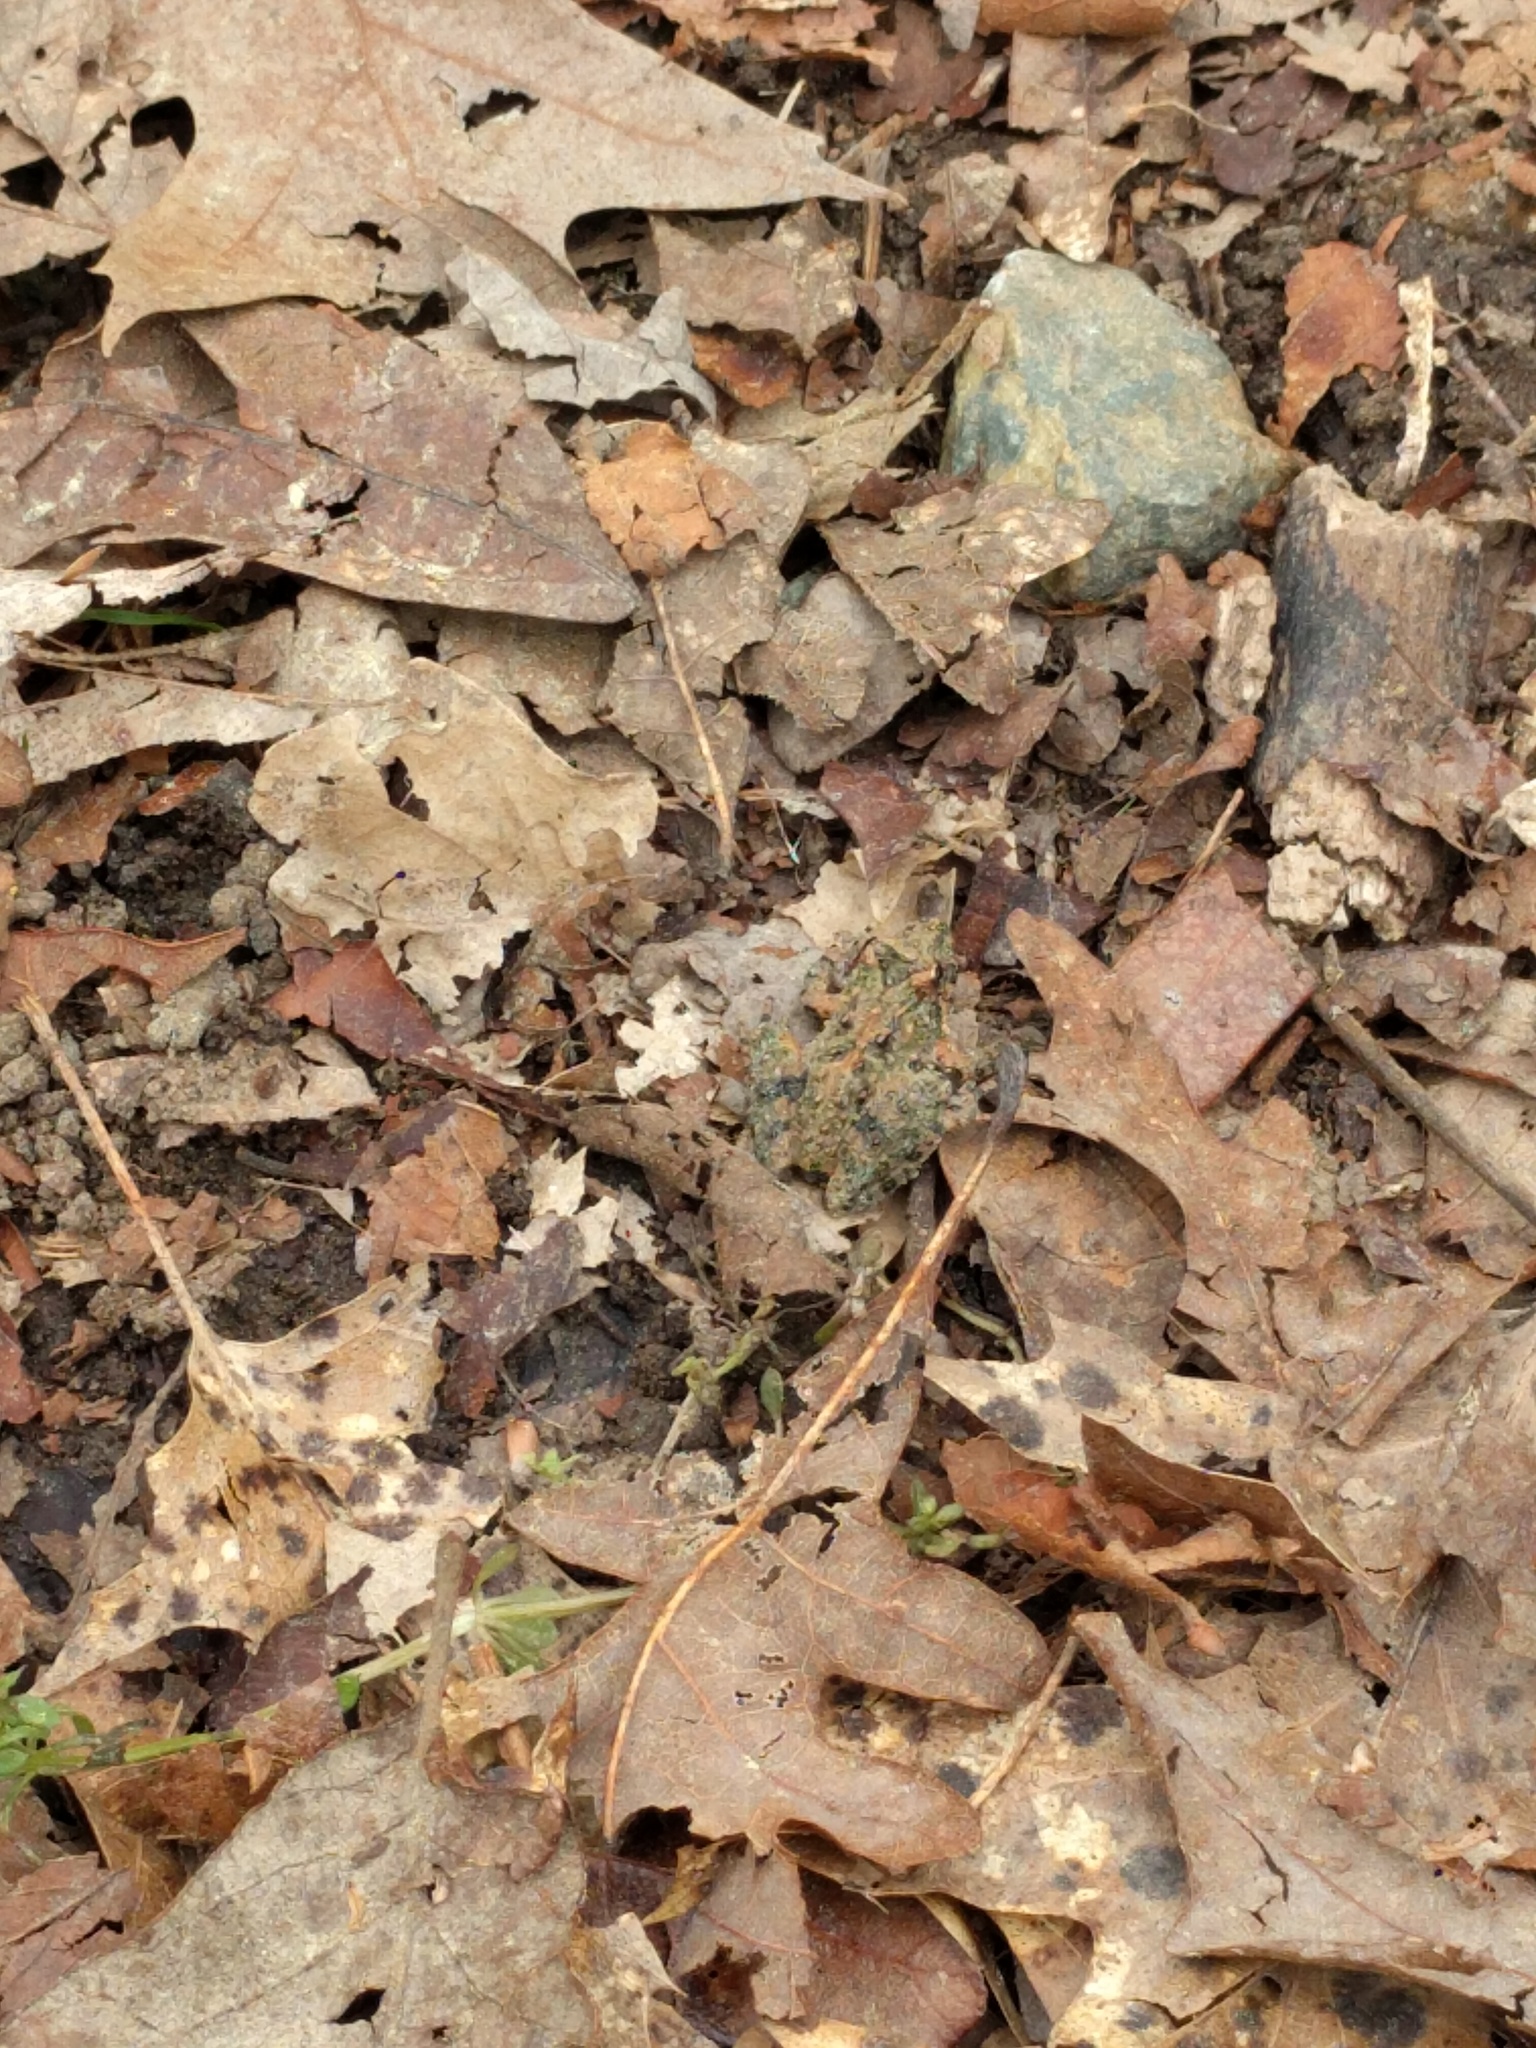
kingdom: Animalia
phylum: Chordata
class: Amphibia
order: Anura
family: Hylidae
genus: Acris
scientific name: Acris crepitans
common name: Northern cricket frog
